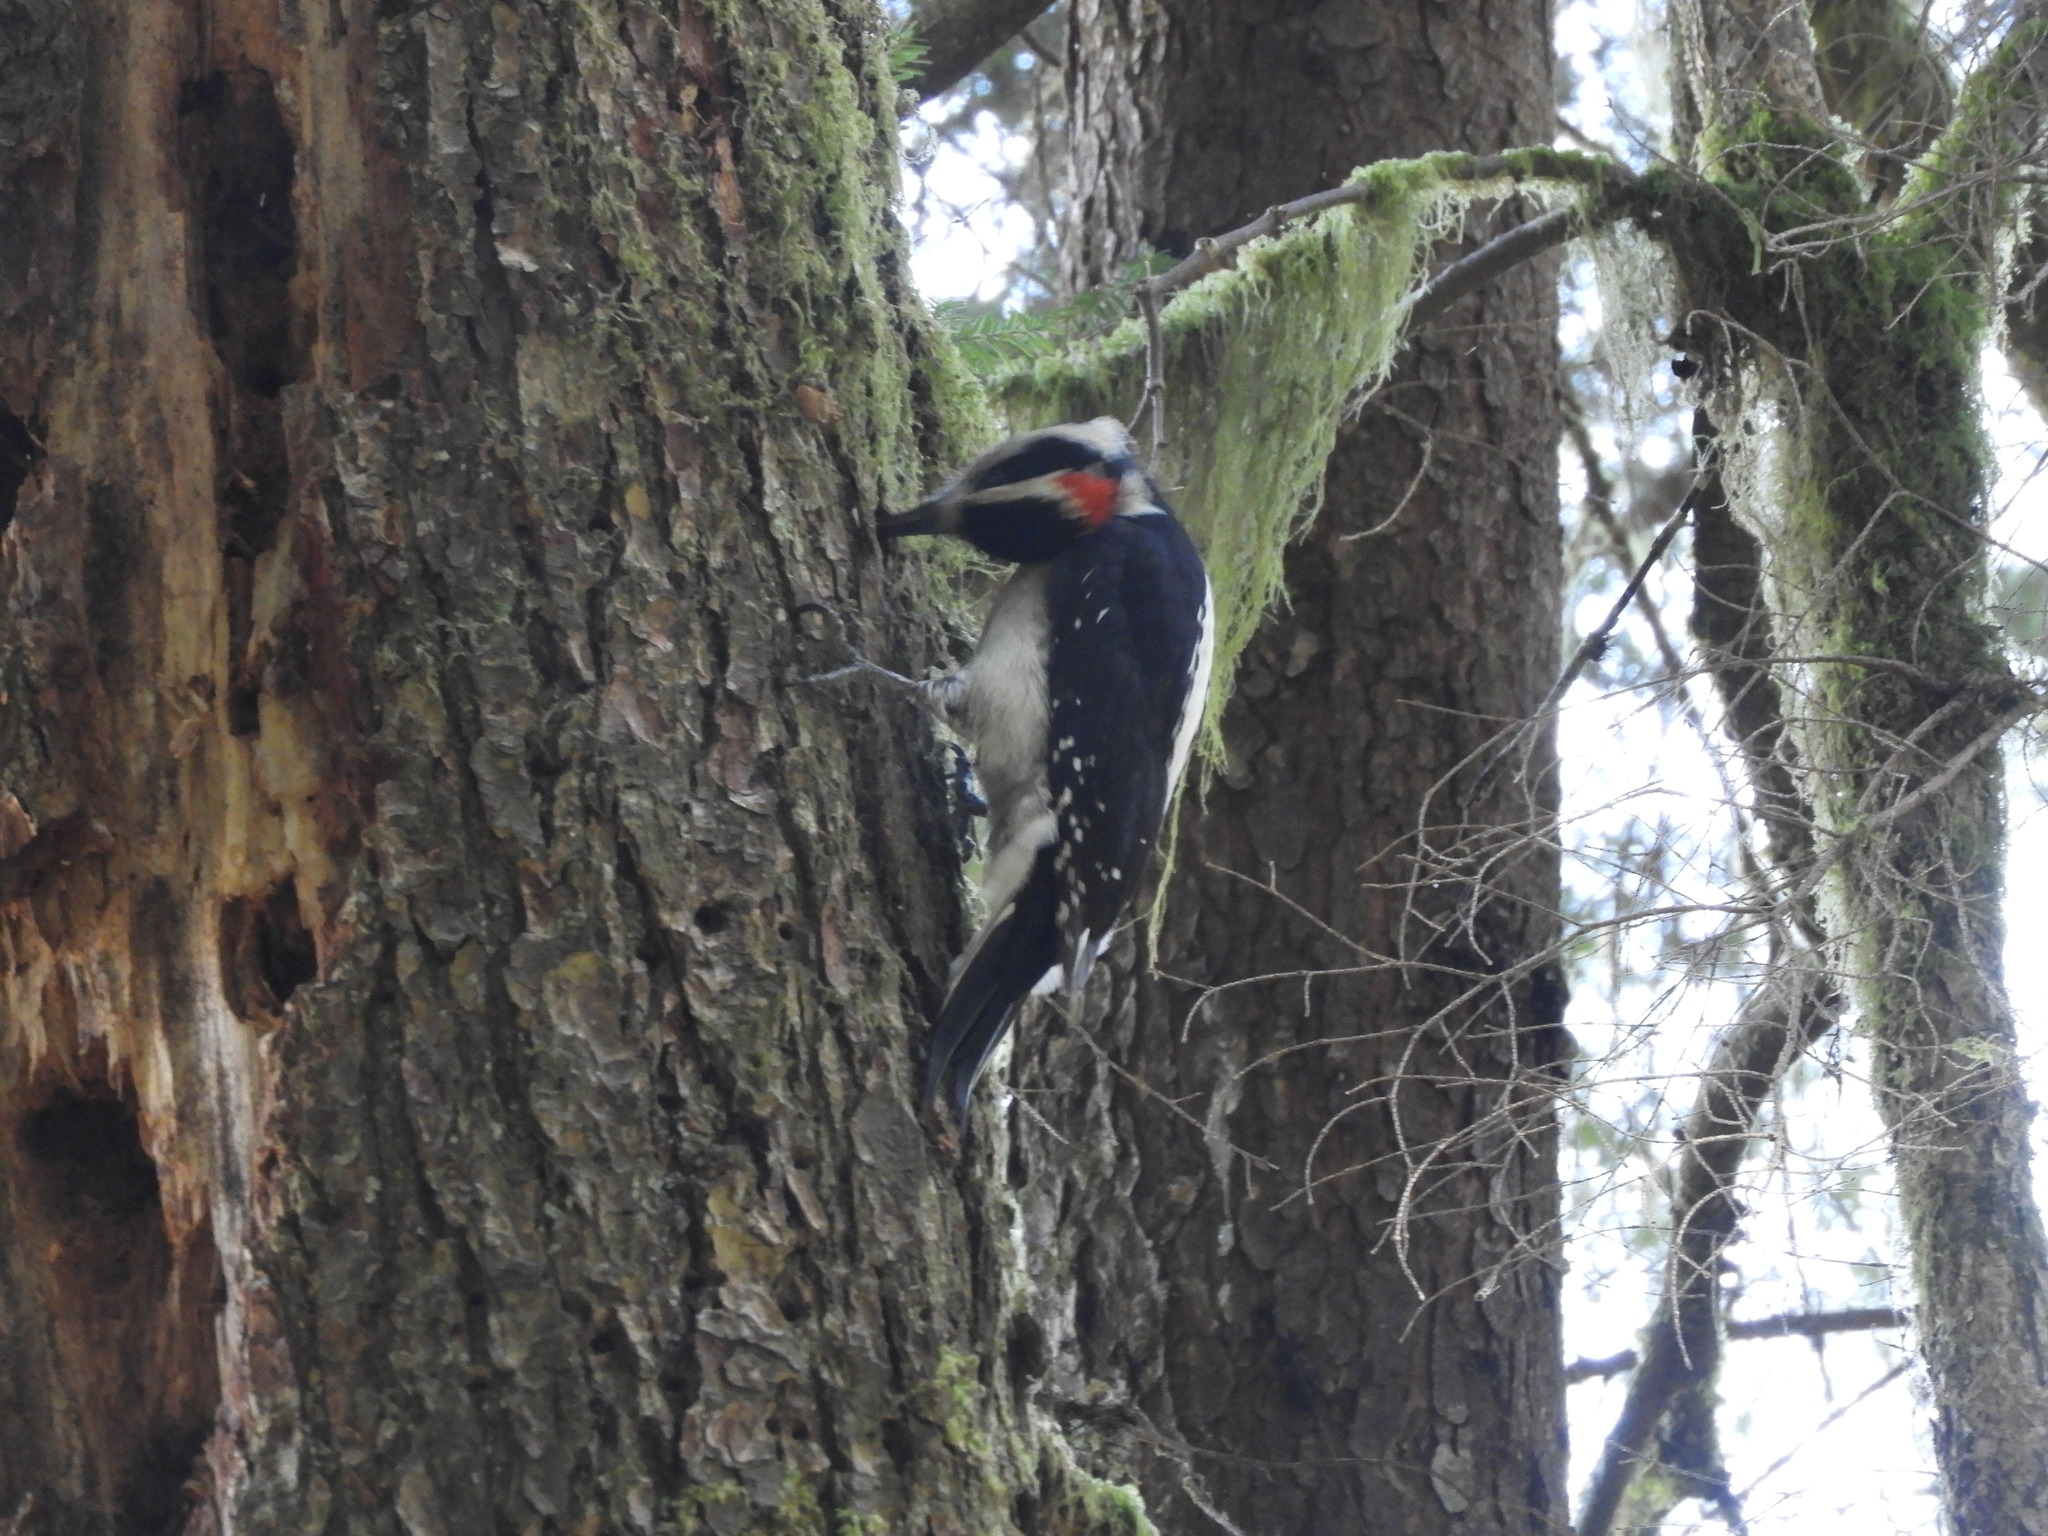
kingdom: Animalia
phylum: Chordata
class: Aves
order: Piciformes
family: Picidae
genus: Leuconotopicus
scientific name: Leuconotopicus villosus
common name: Hairy woodpecker
